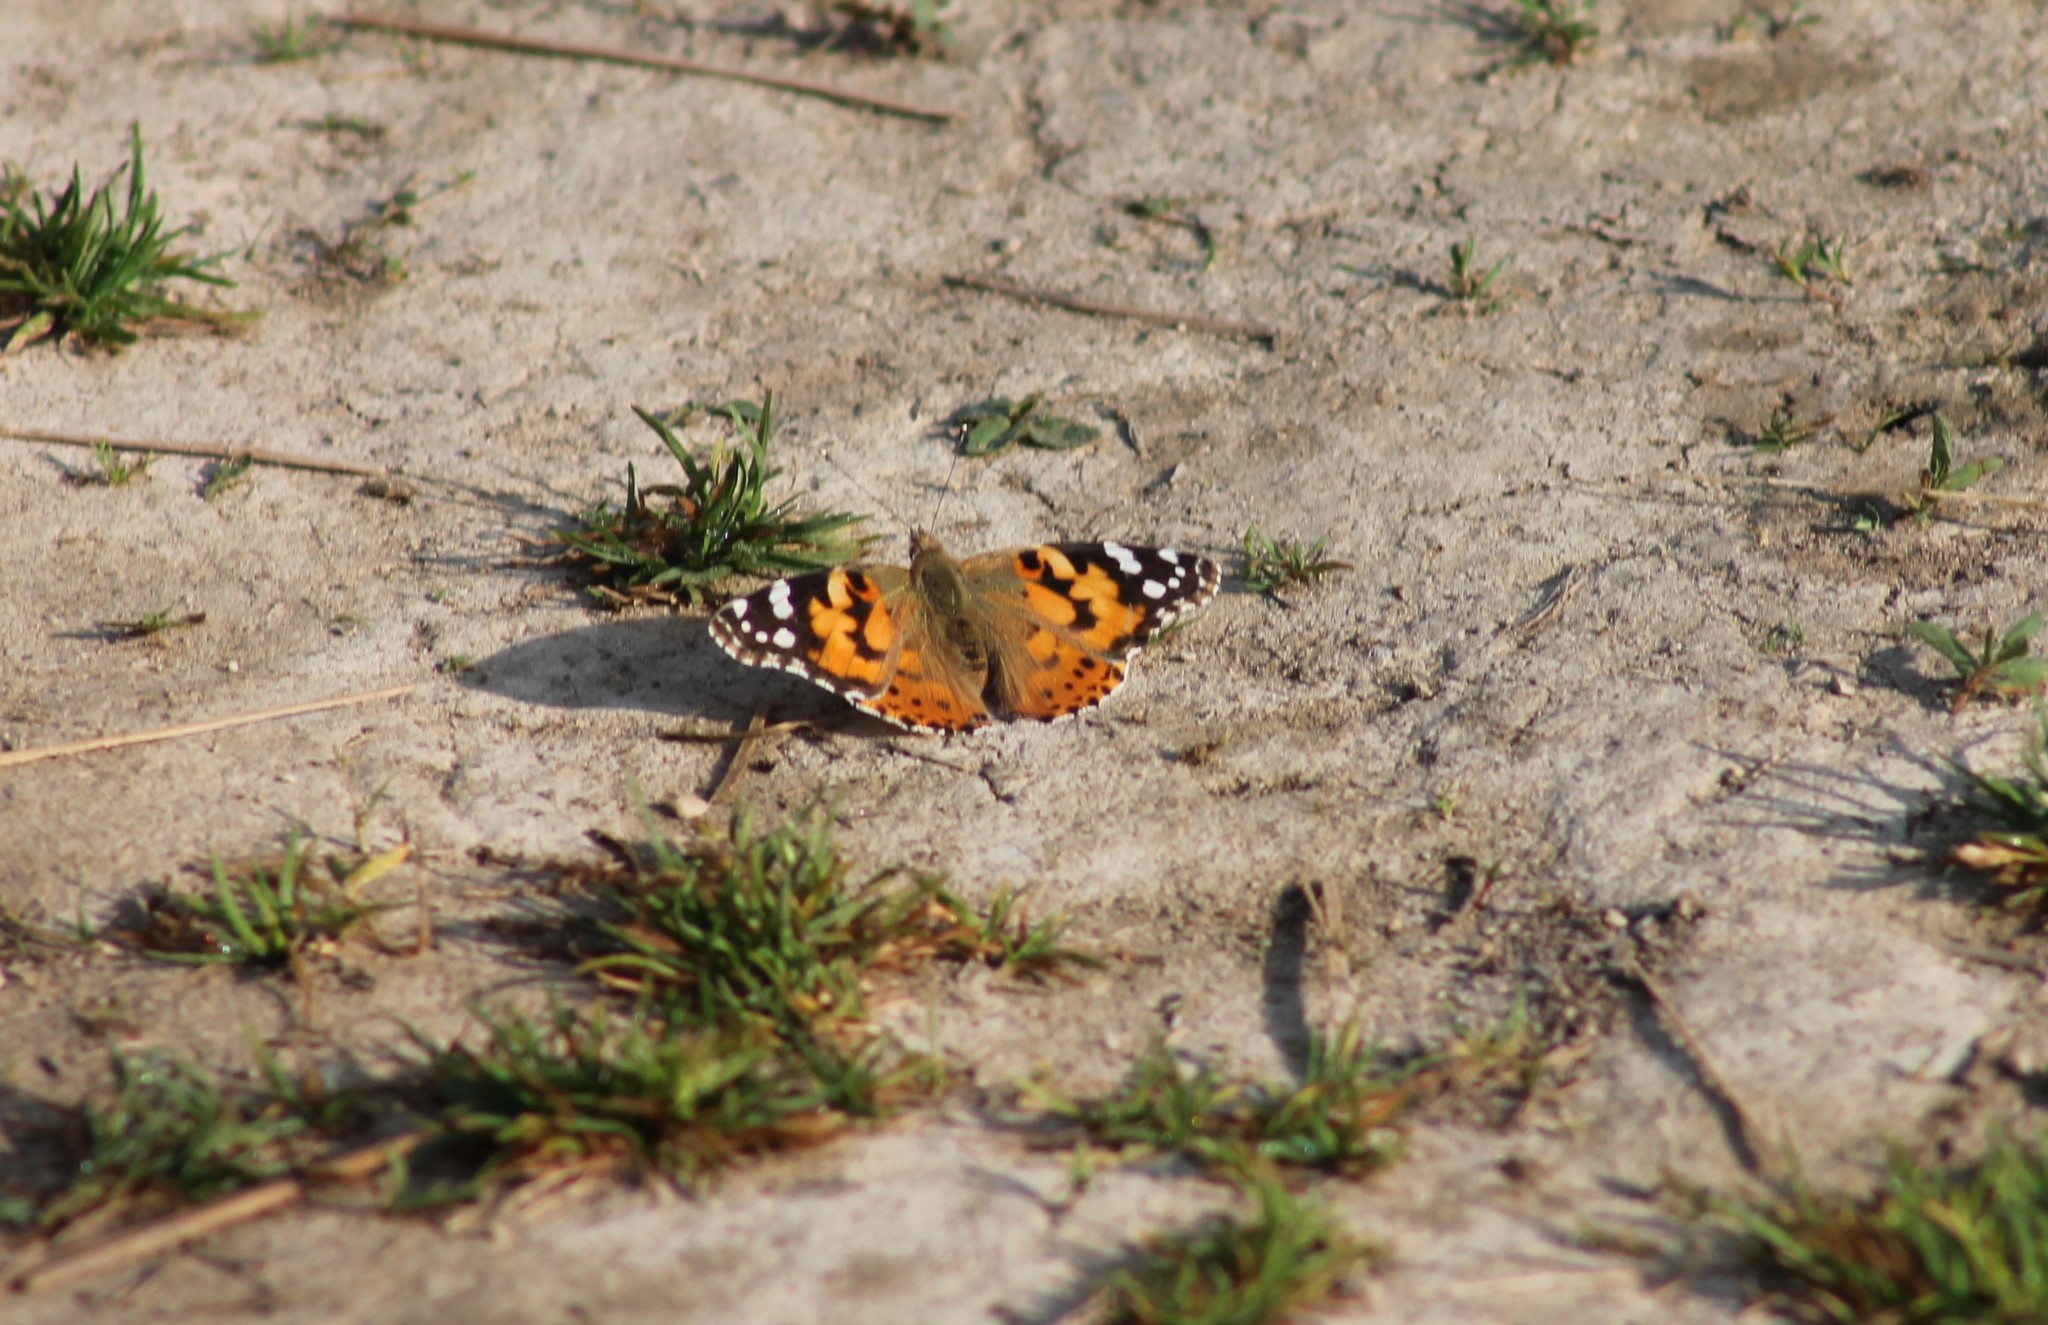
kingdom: Animalia
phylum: Arthropoda
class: Insecta
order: Lepidoptera
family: Nymphalidae
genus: Vanessa
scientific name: Vanessa cardui
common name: Painted lady
